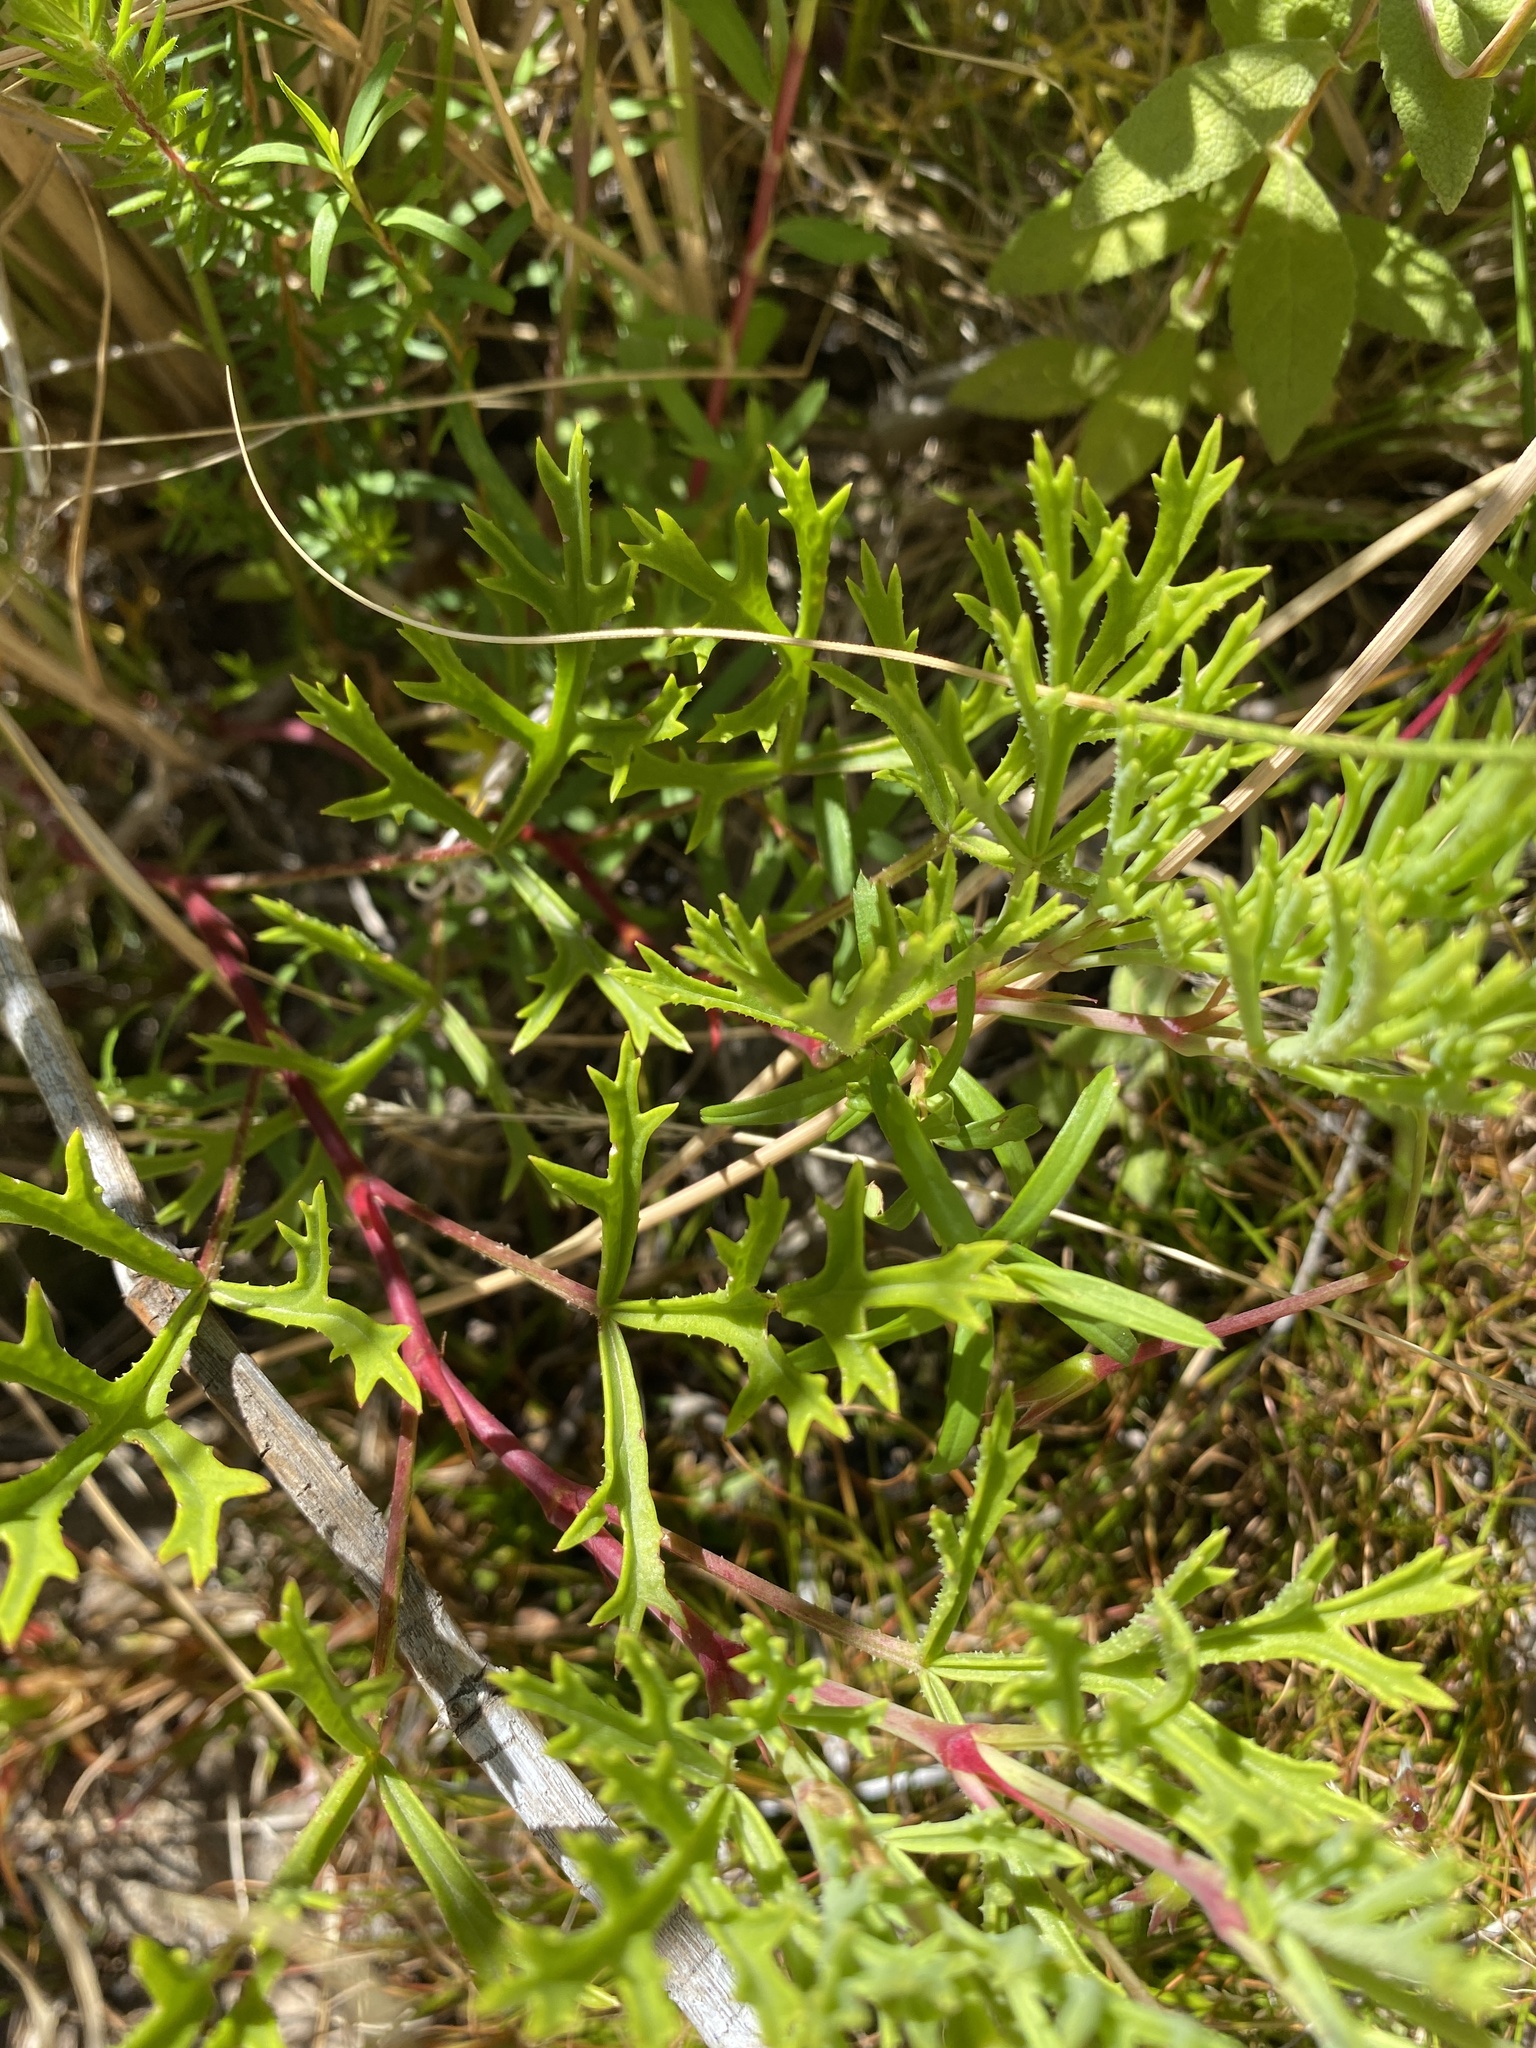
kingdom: Plantae
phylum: Tracheophyta
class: Magnoliopsida
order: Geraniales
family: Geraniaceae
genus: Pelargonium
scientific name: Pelargonium laevigatum
